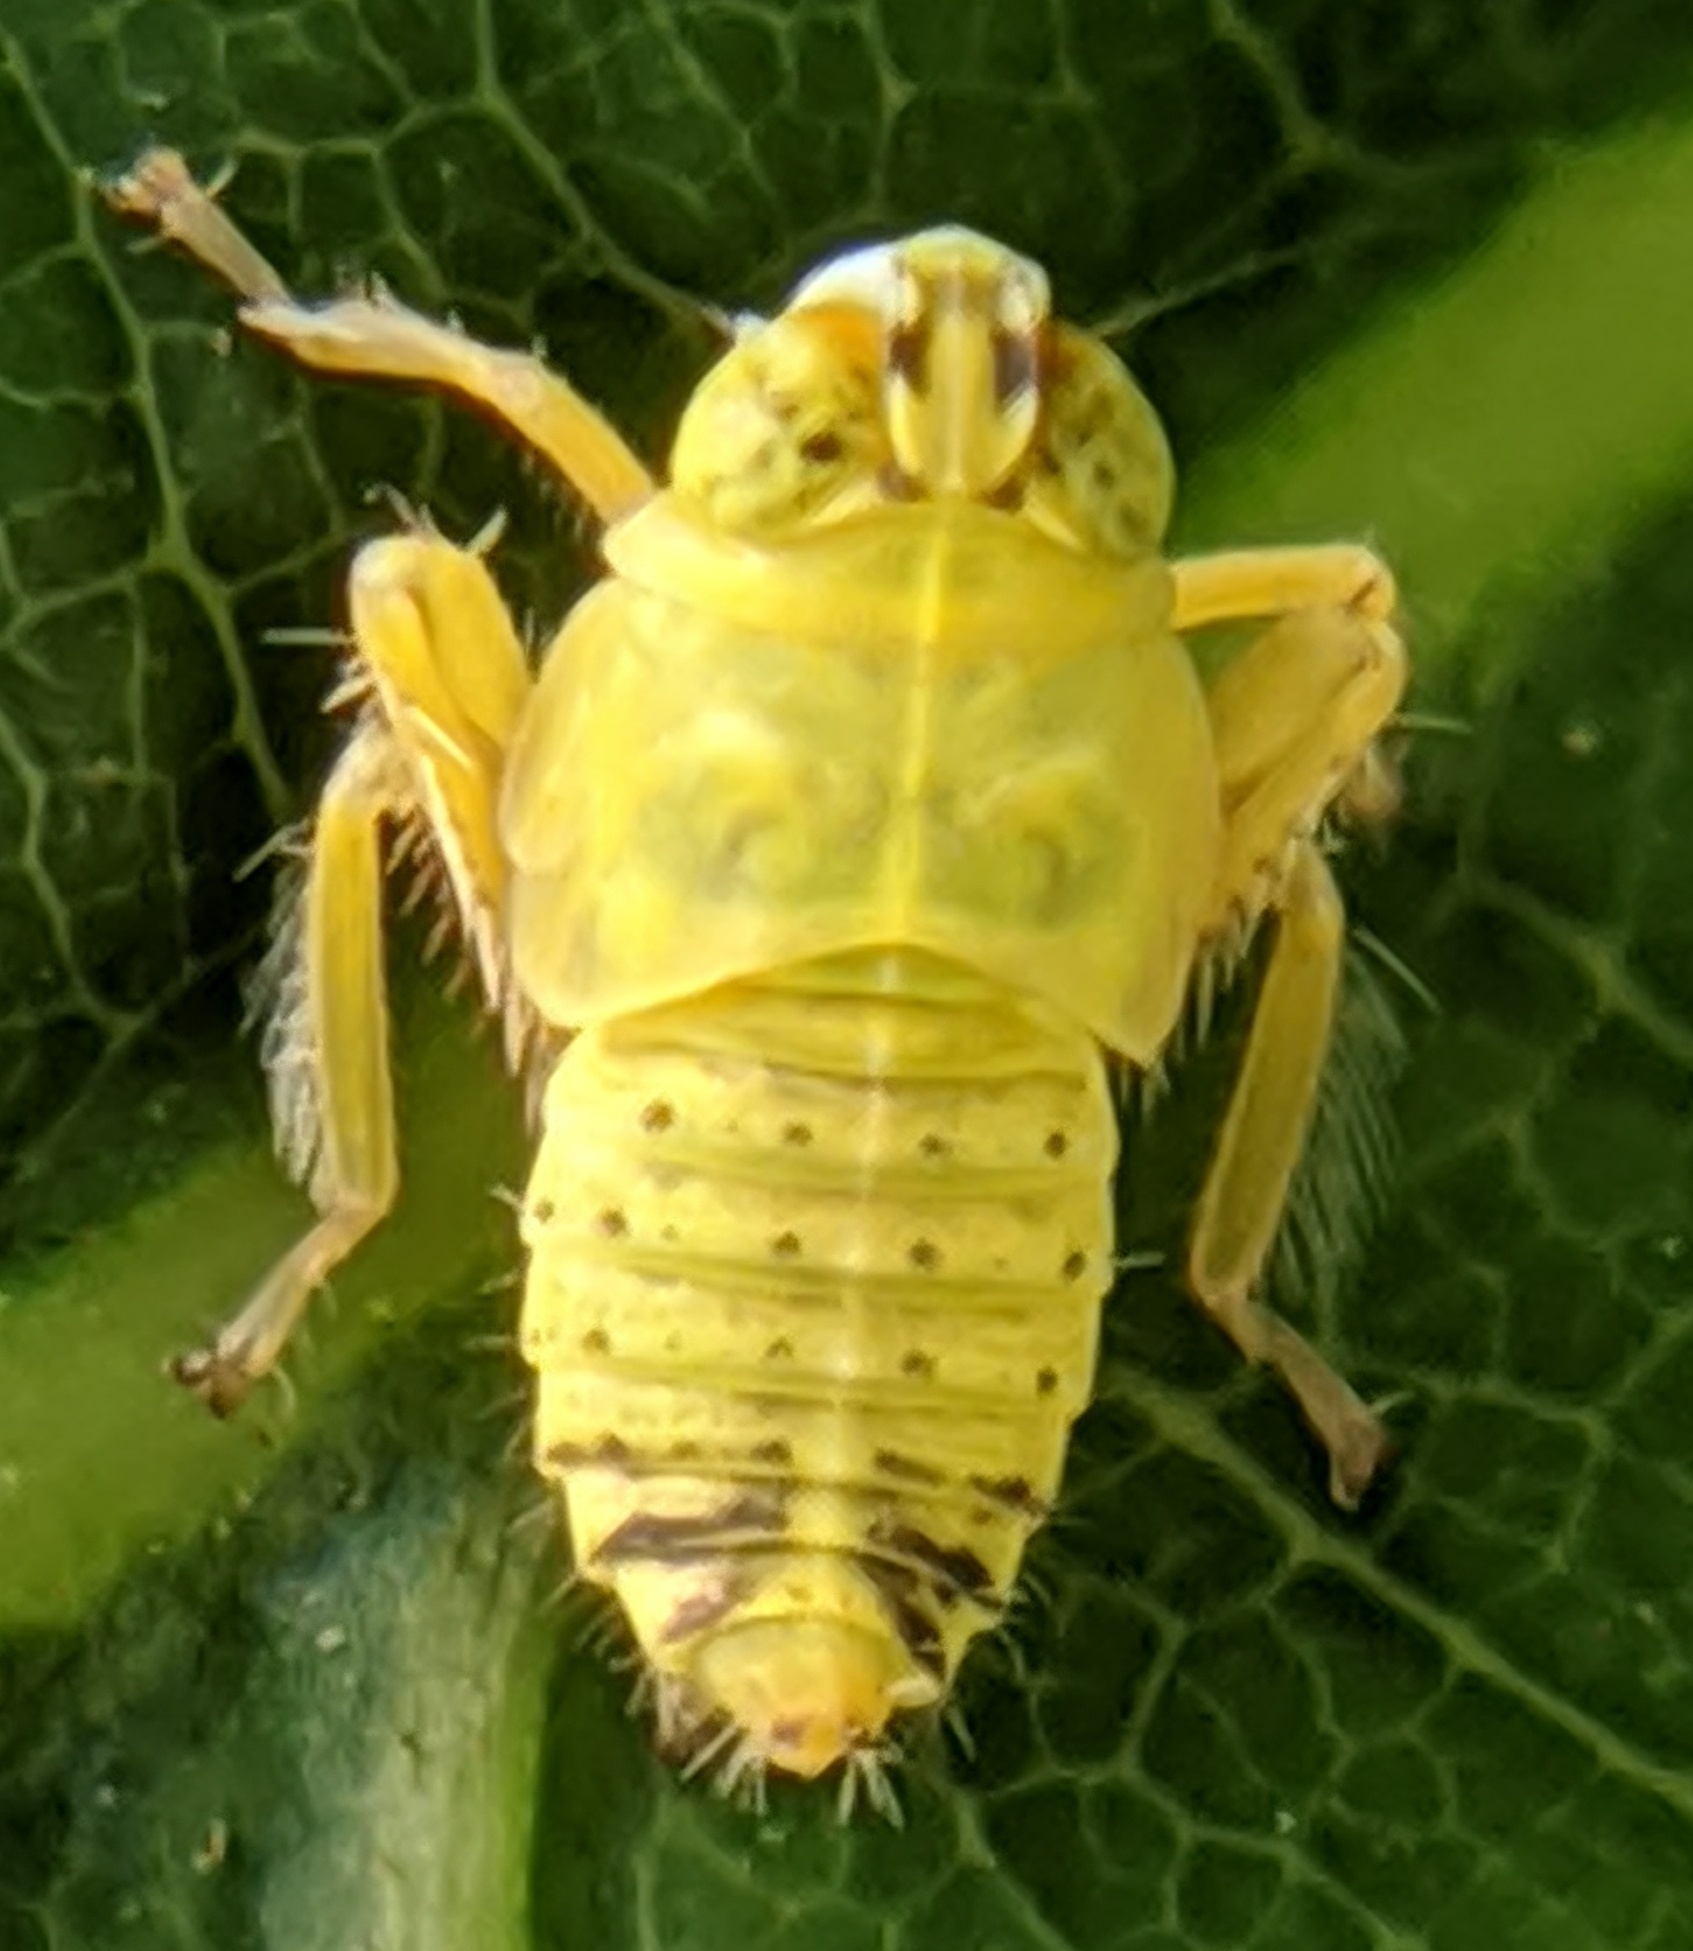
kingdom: Animalia
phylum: Arthropoda
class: Insecta
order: Hemiptera
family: Cicadellidae
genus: Jikradia
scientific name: Jikradia olitoria
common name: Coppery leafhopper
